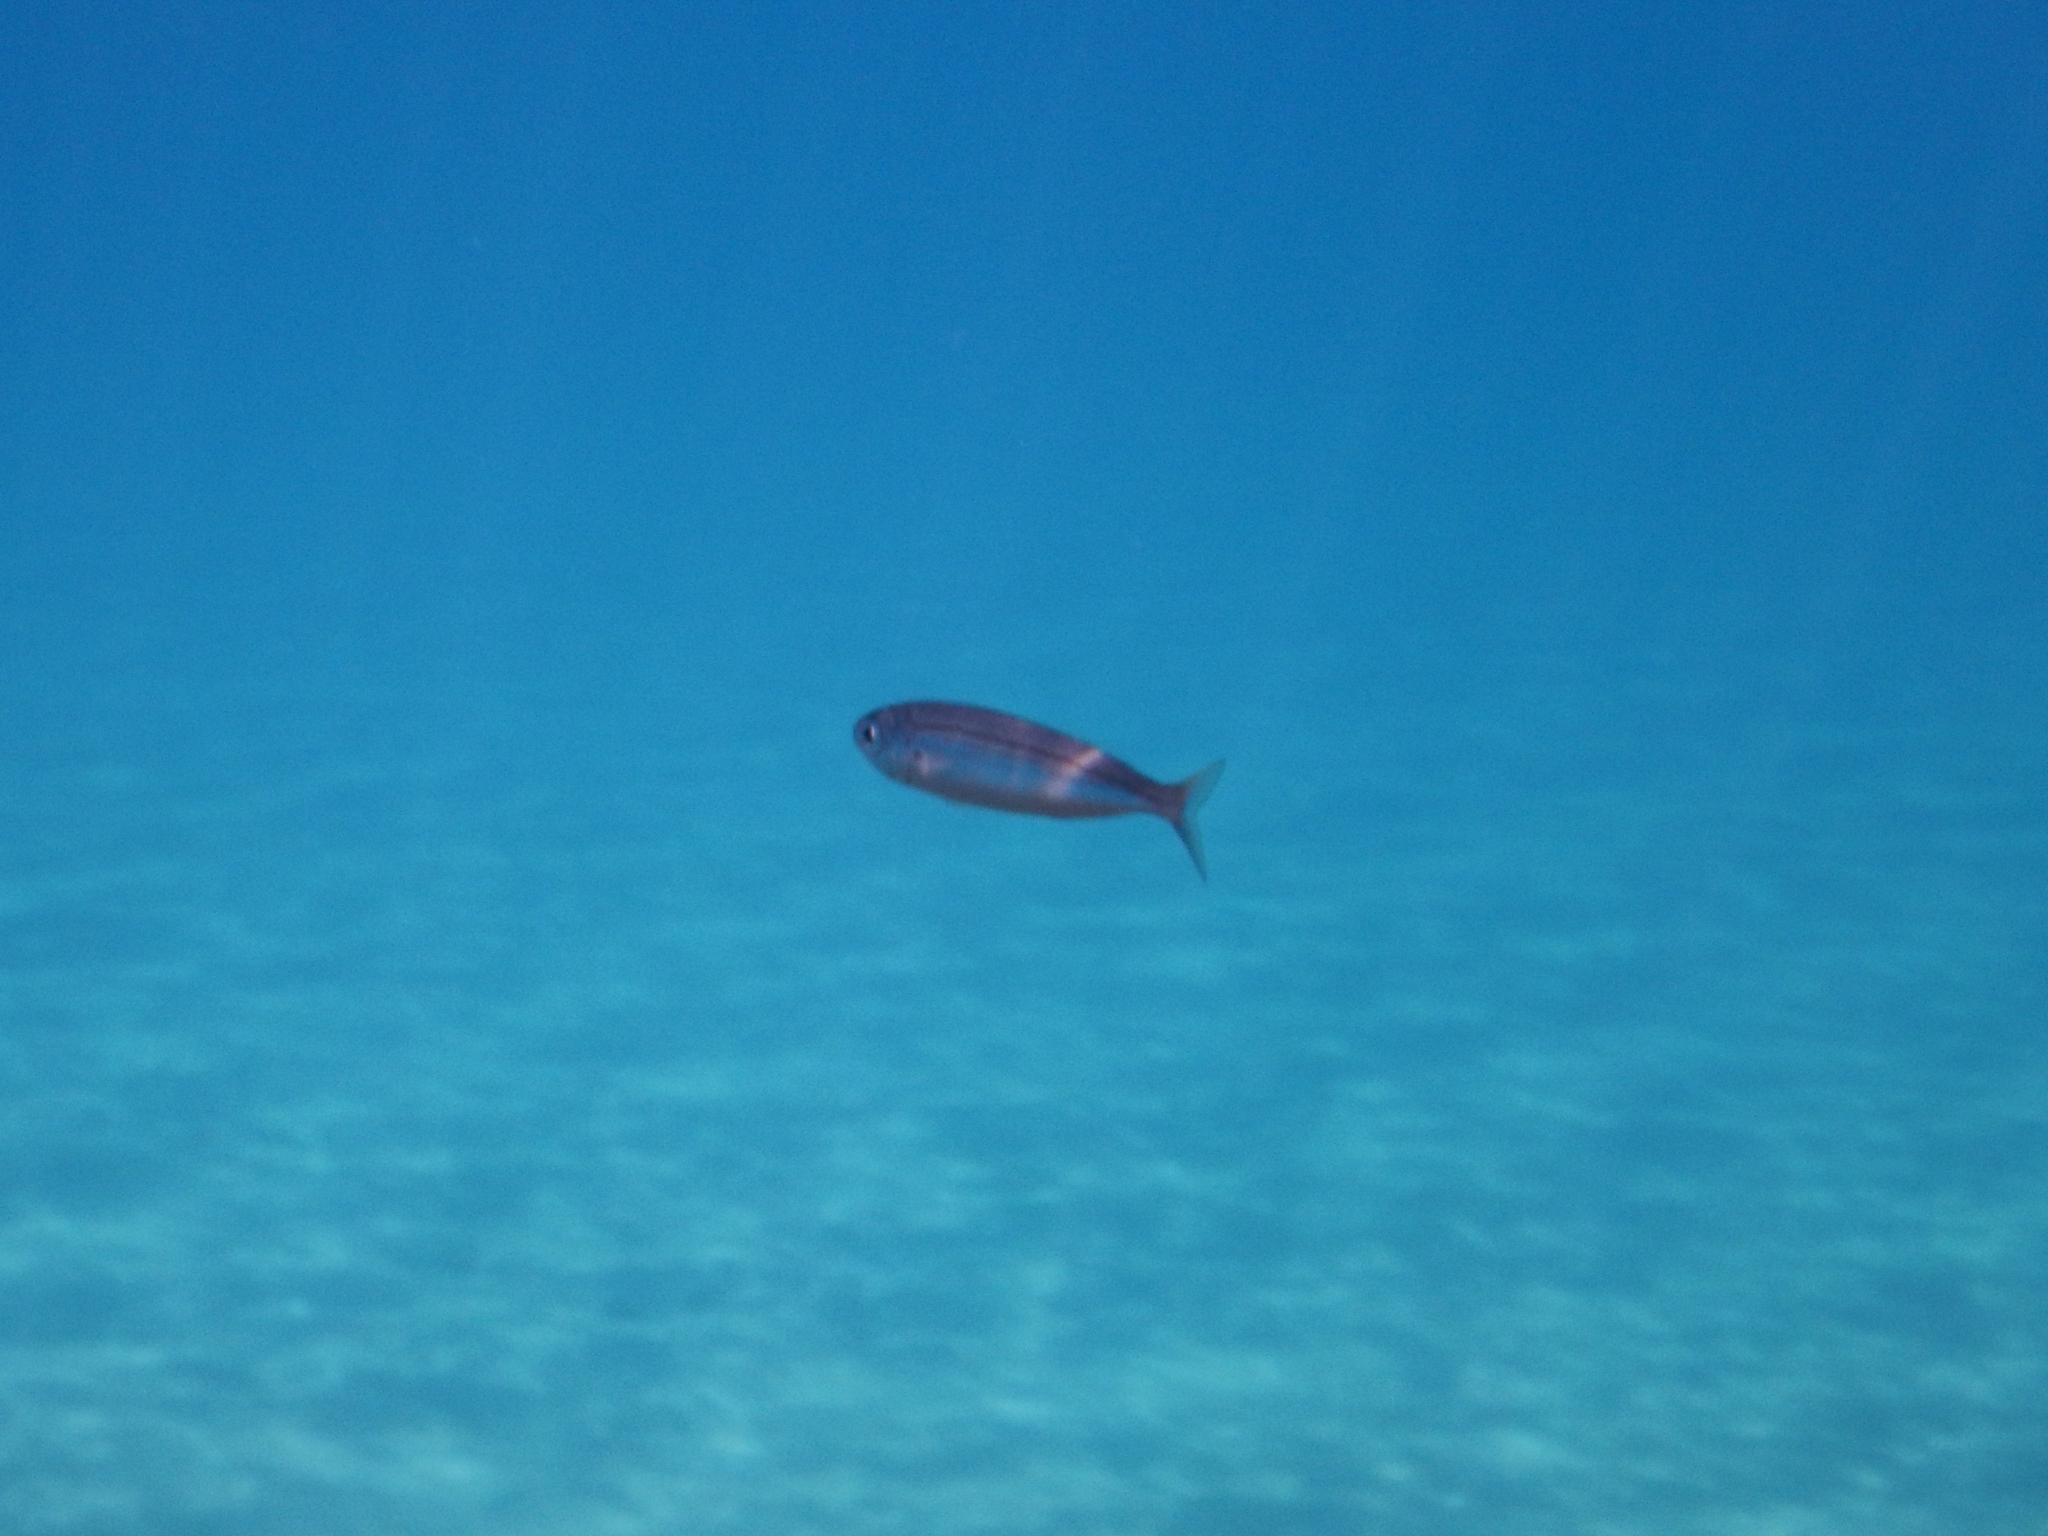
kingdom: Animalia
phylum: Chordata
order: Perciformes
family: Sparidae
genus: Boops
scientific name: Boops boops
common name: Bogue
